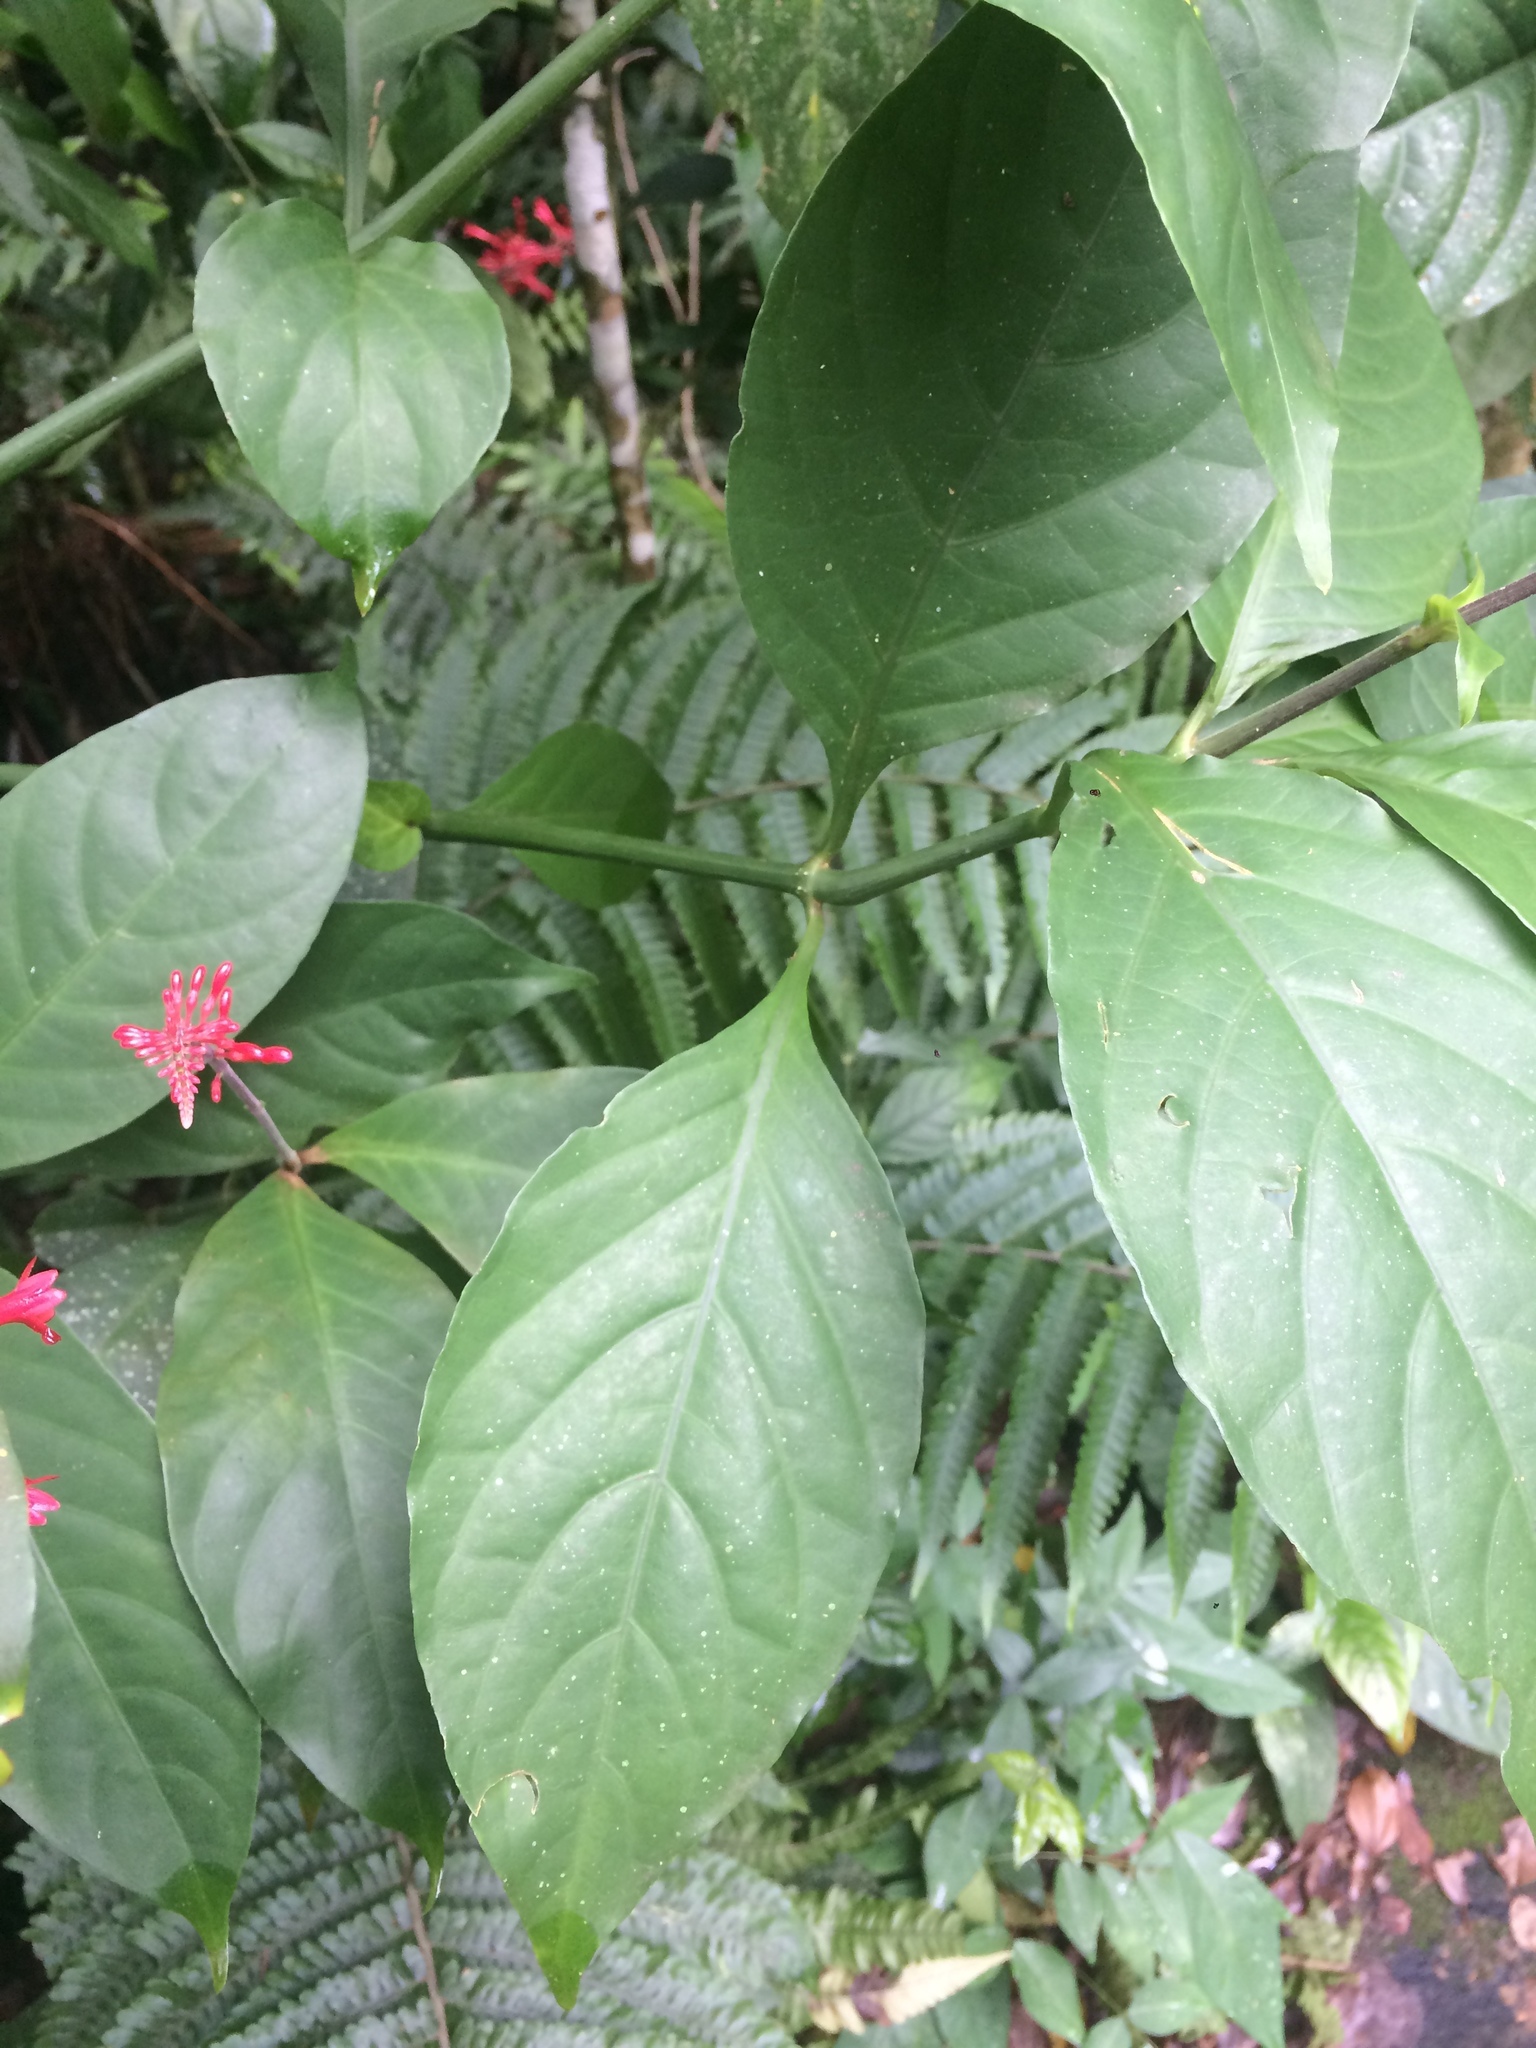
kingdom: Plantae
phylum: Tracheophyta
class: Magnoliopsida
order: Lamiales
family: Acanthaceae
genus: Odontonema
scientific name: Odontonema tubaeforme
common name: Firespike
